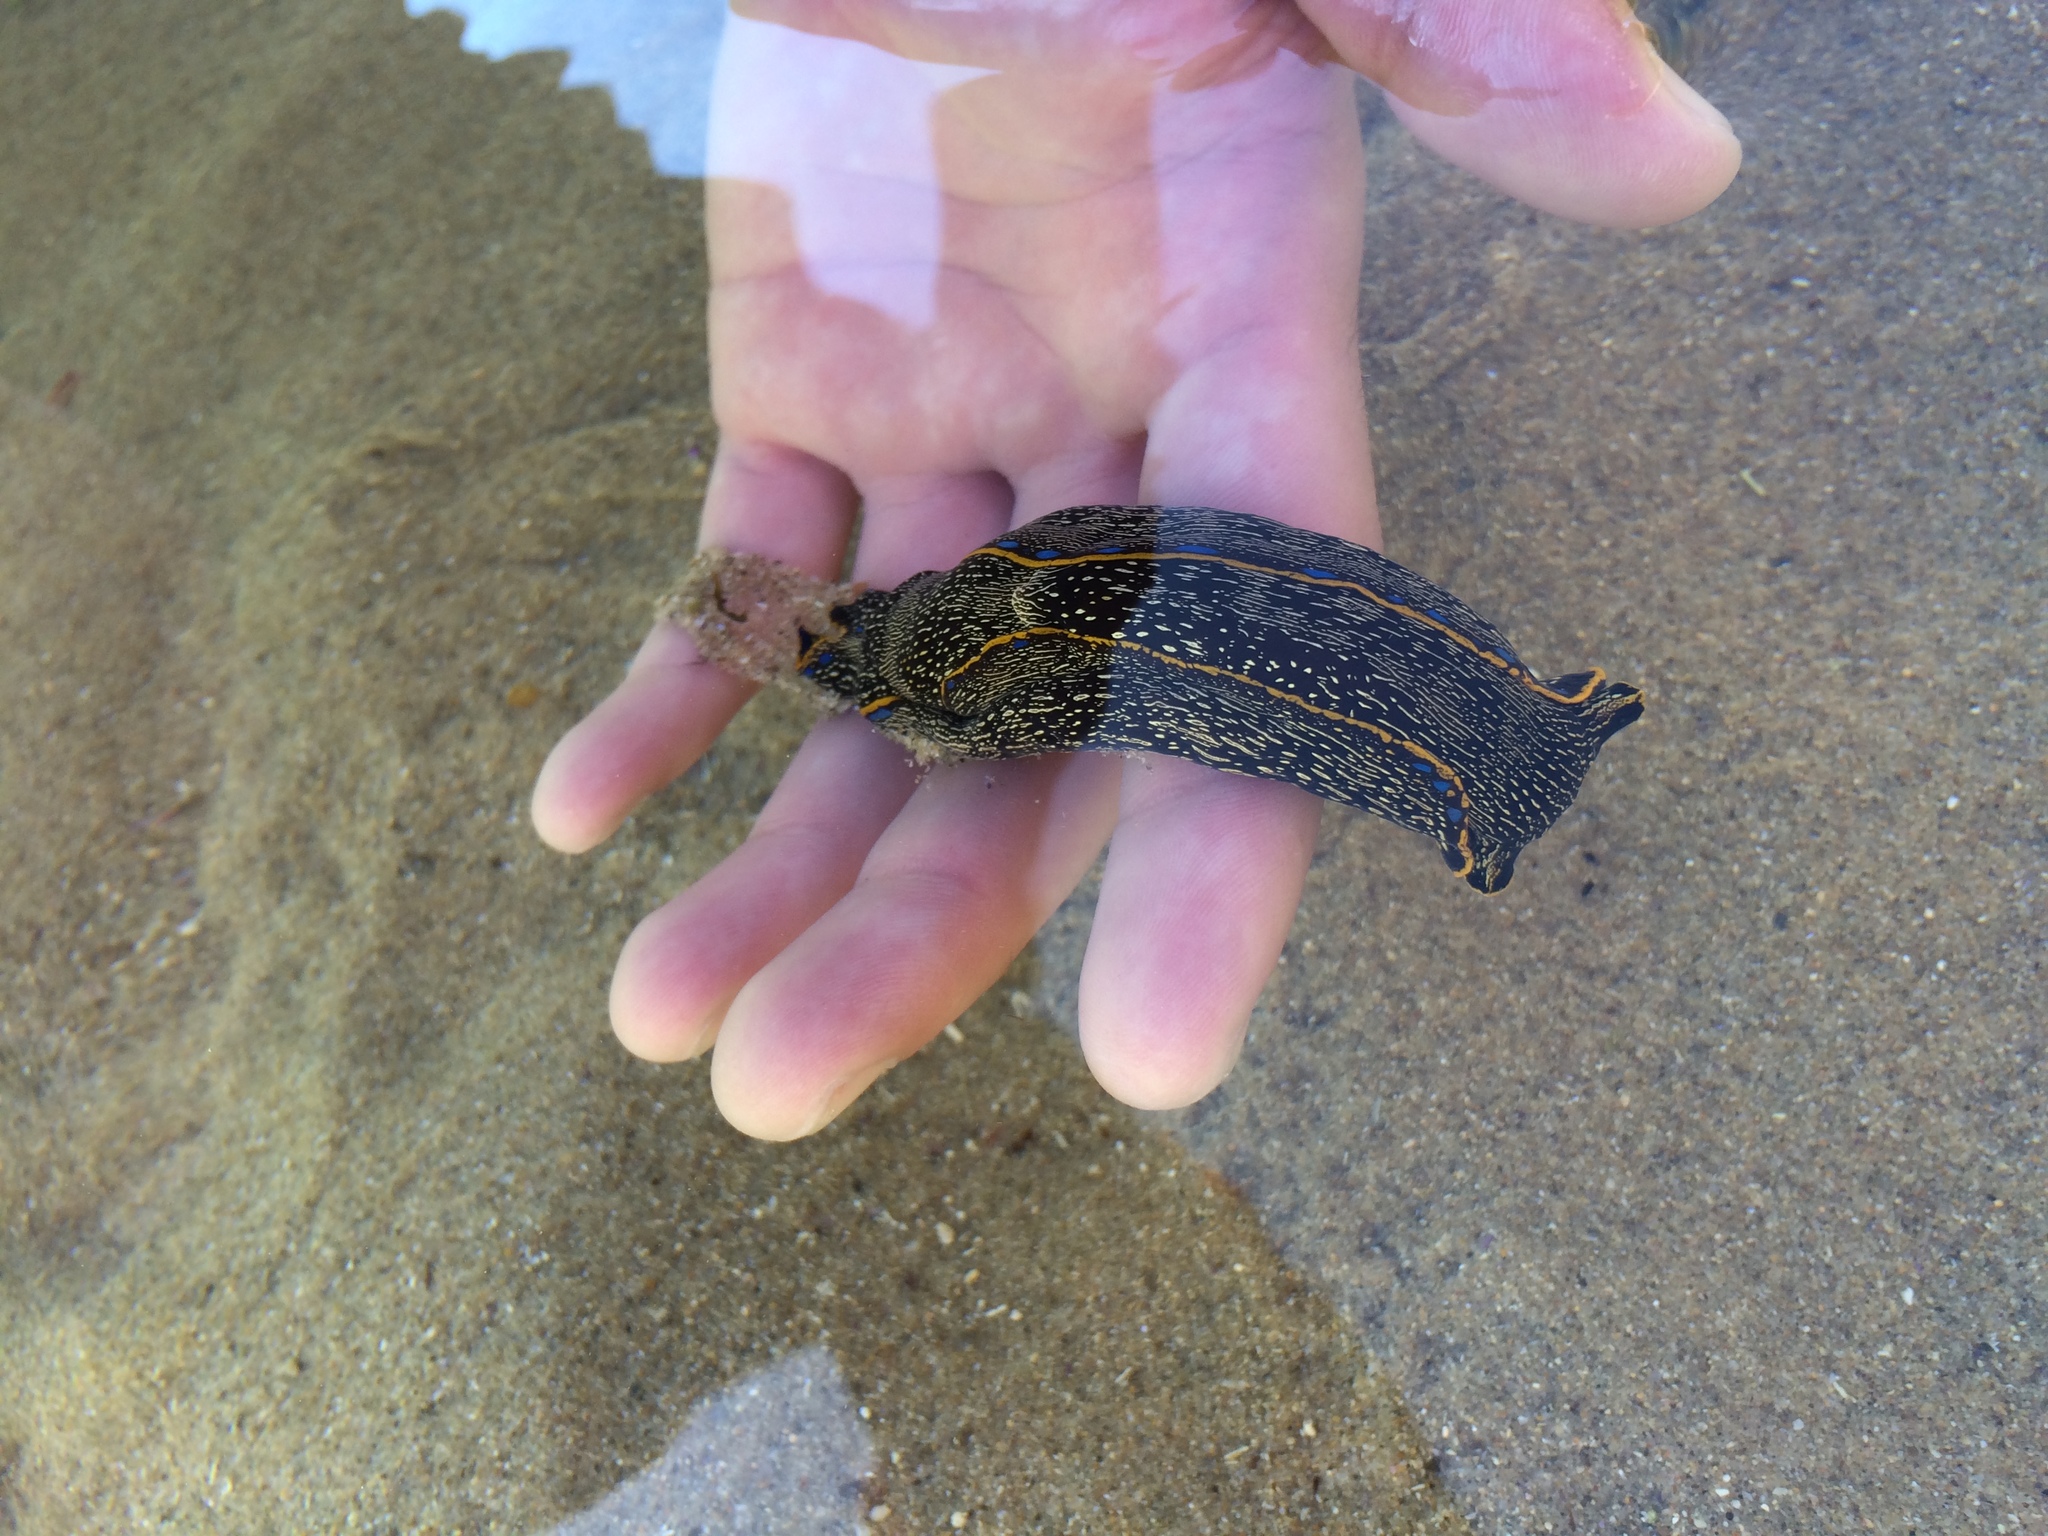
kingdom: Animalia
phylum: Mollusca
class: Gastropoda
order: Cephalaspidea
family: Aglajidae
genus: Navanax
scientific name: Navanax inermis
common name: California aglaja
